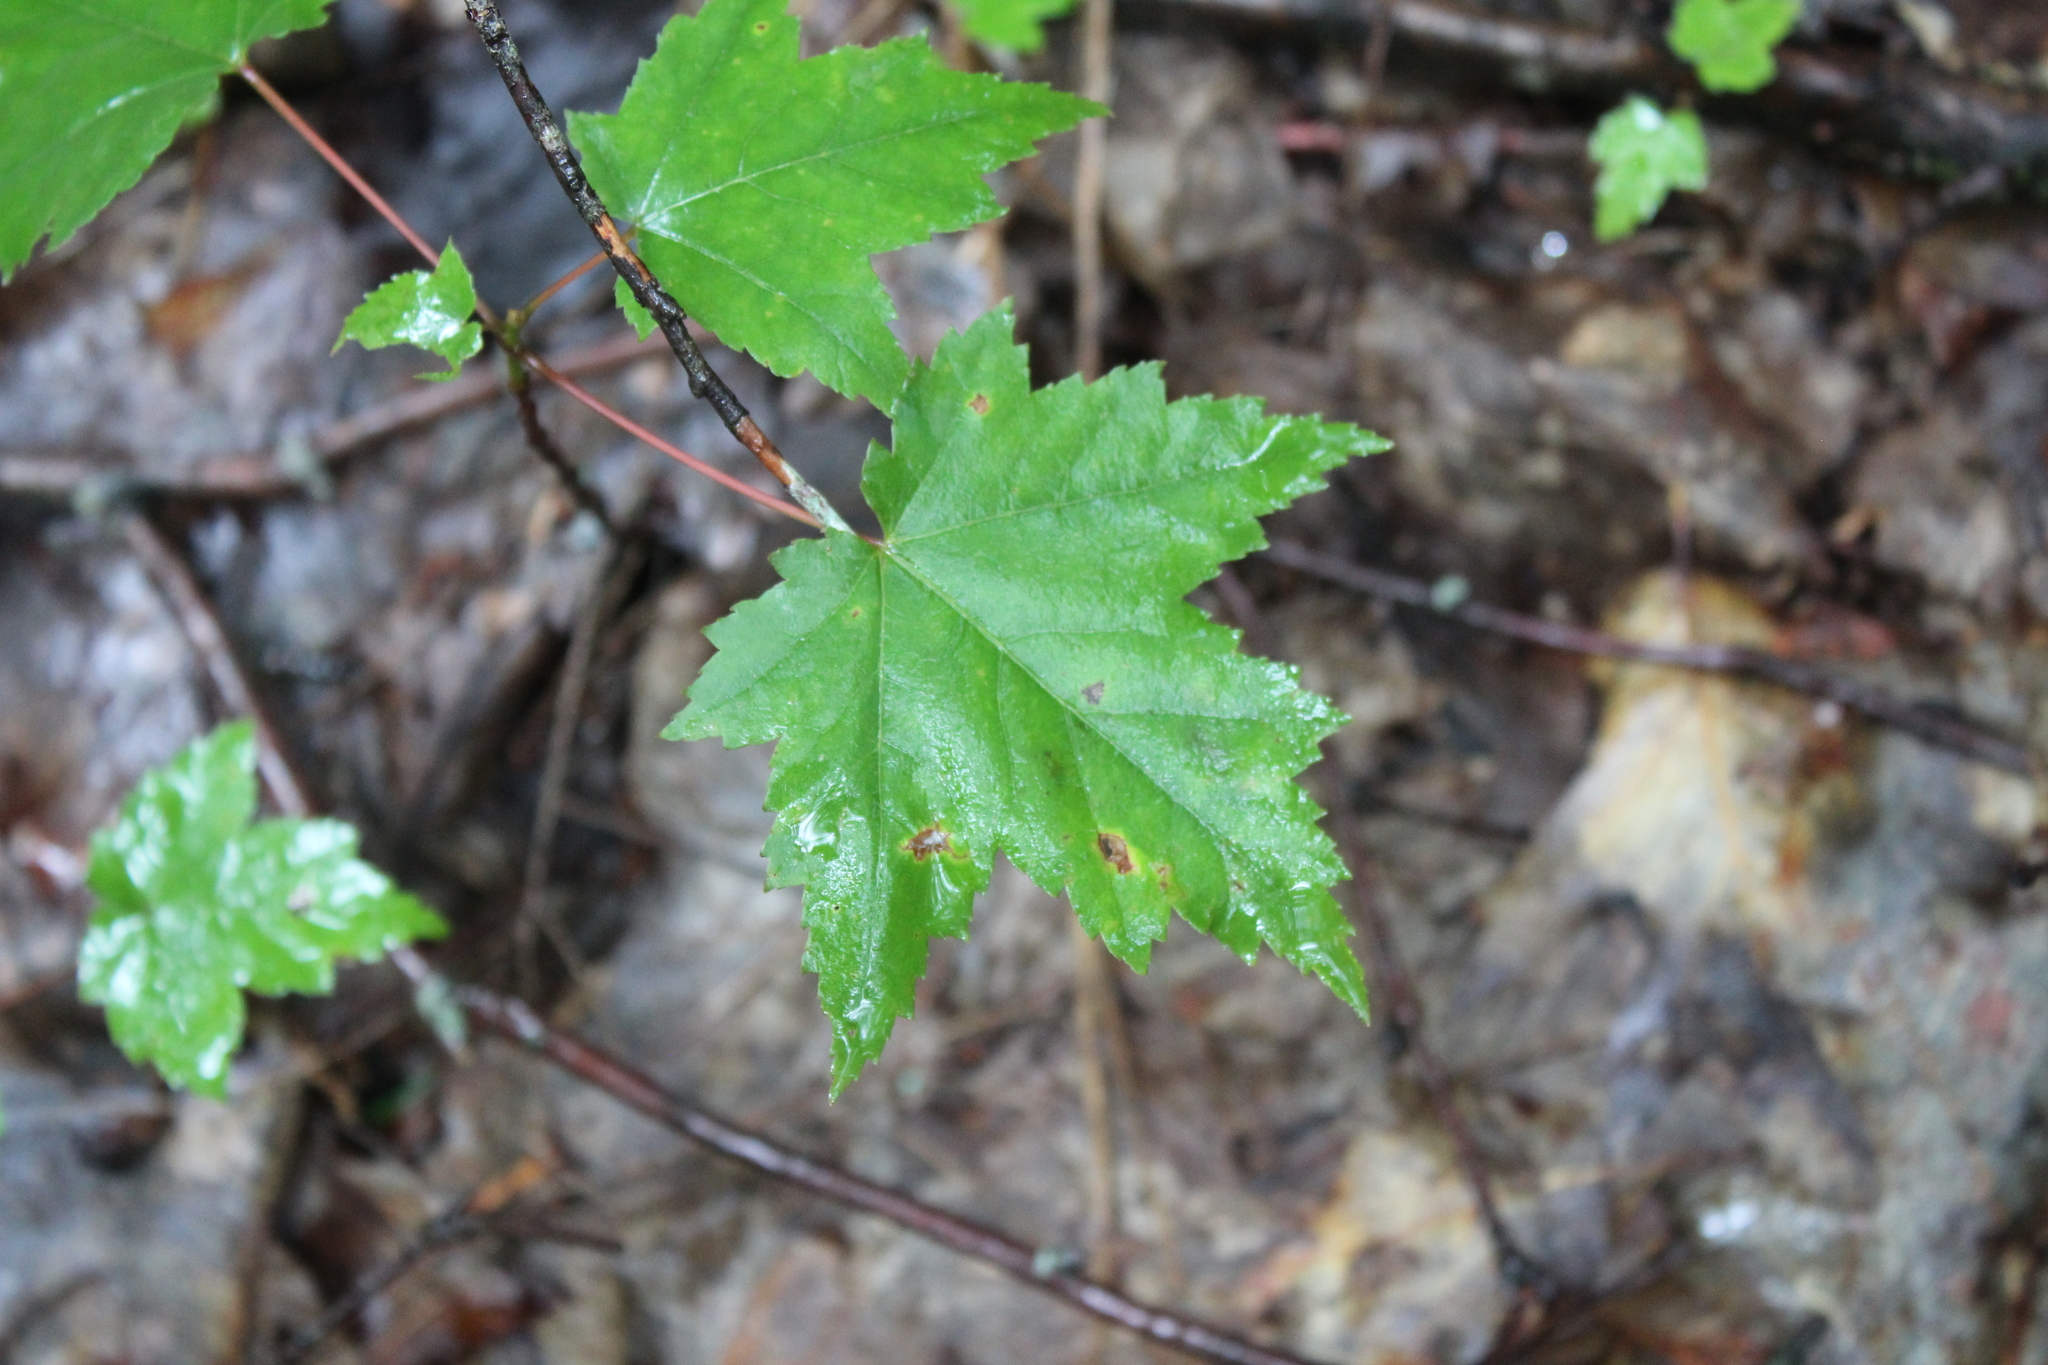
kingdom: Plantae
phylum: Tracheophyta
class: Magnoliopsida
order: Sapindales
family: Sapindaceae
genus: Acer
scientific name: Acer rubrum
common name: Red maple
